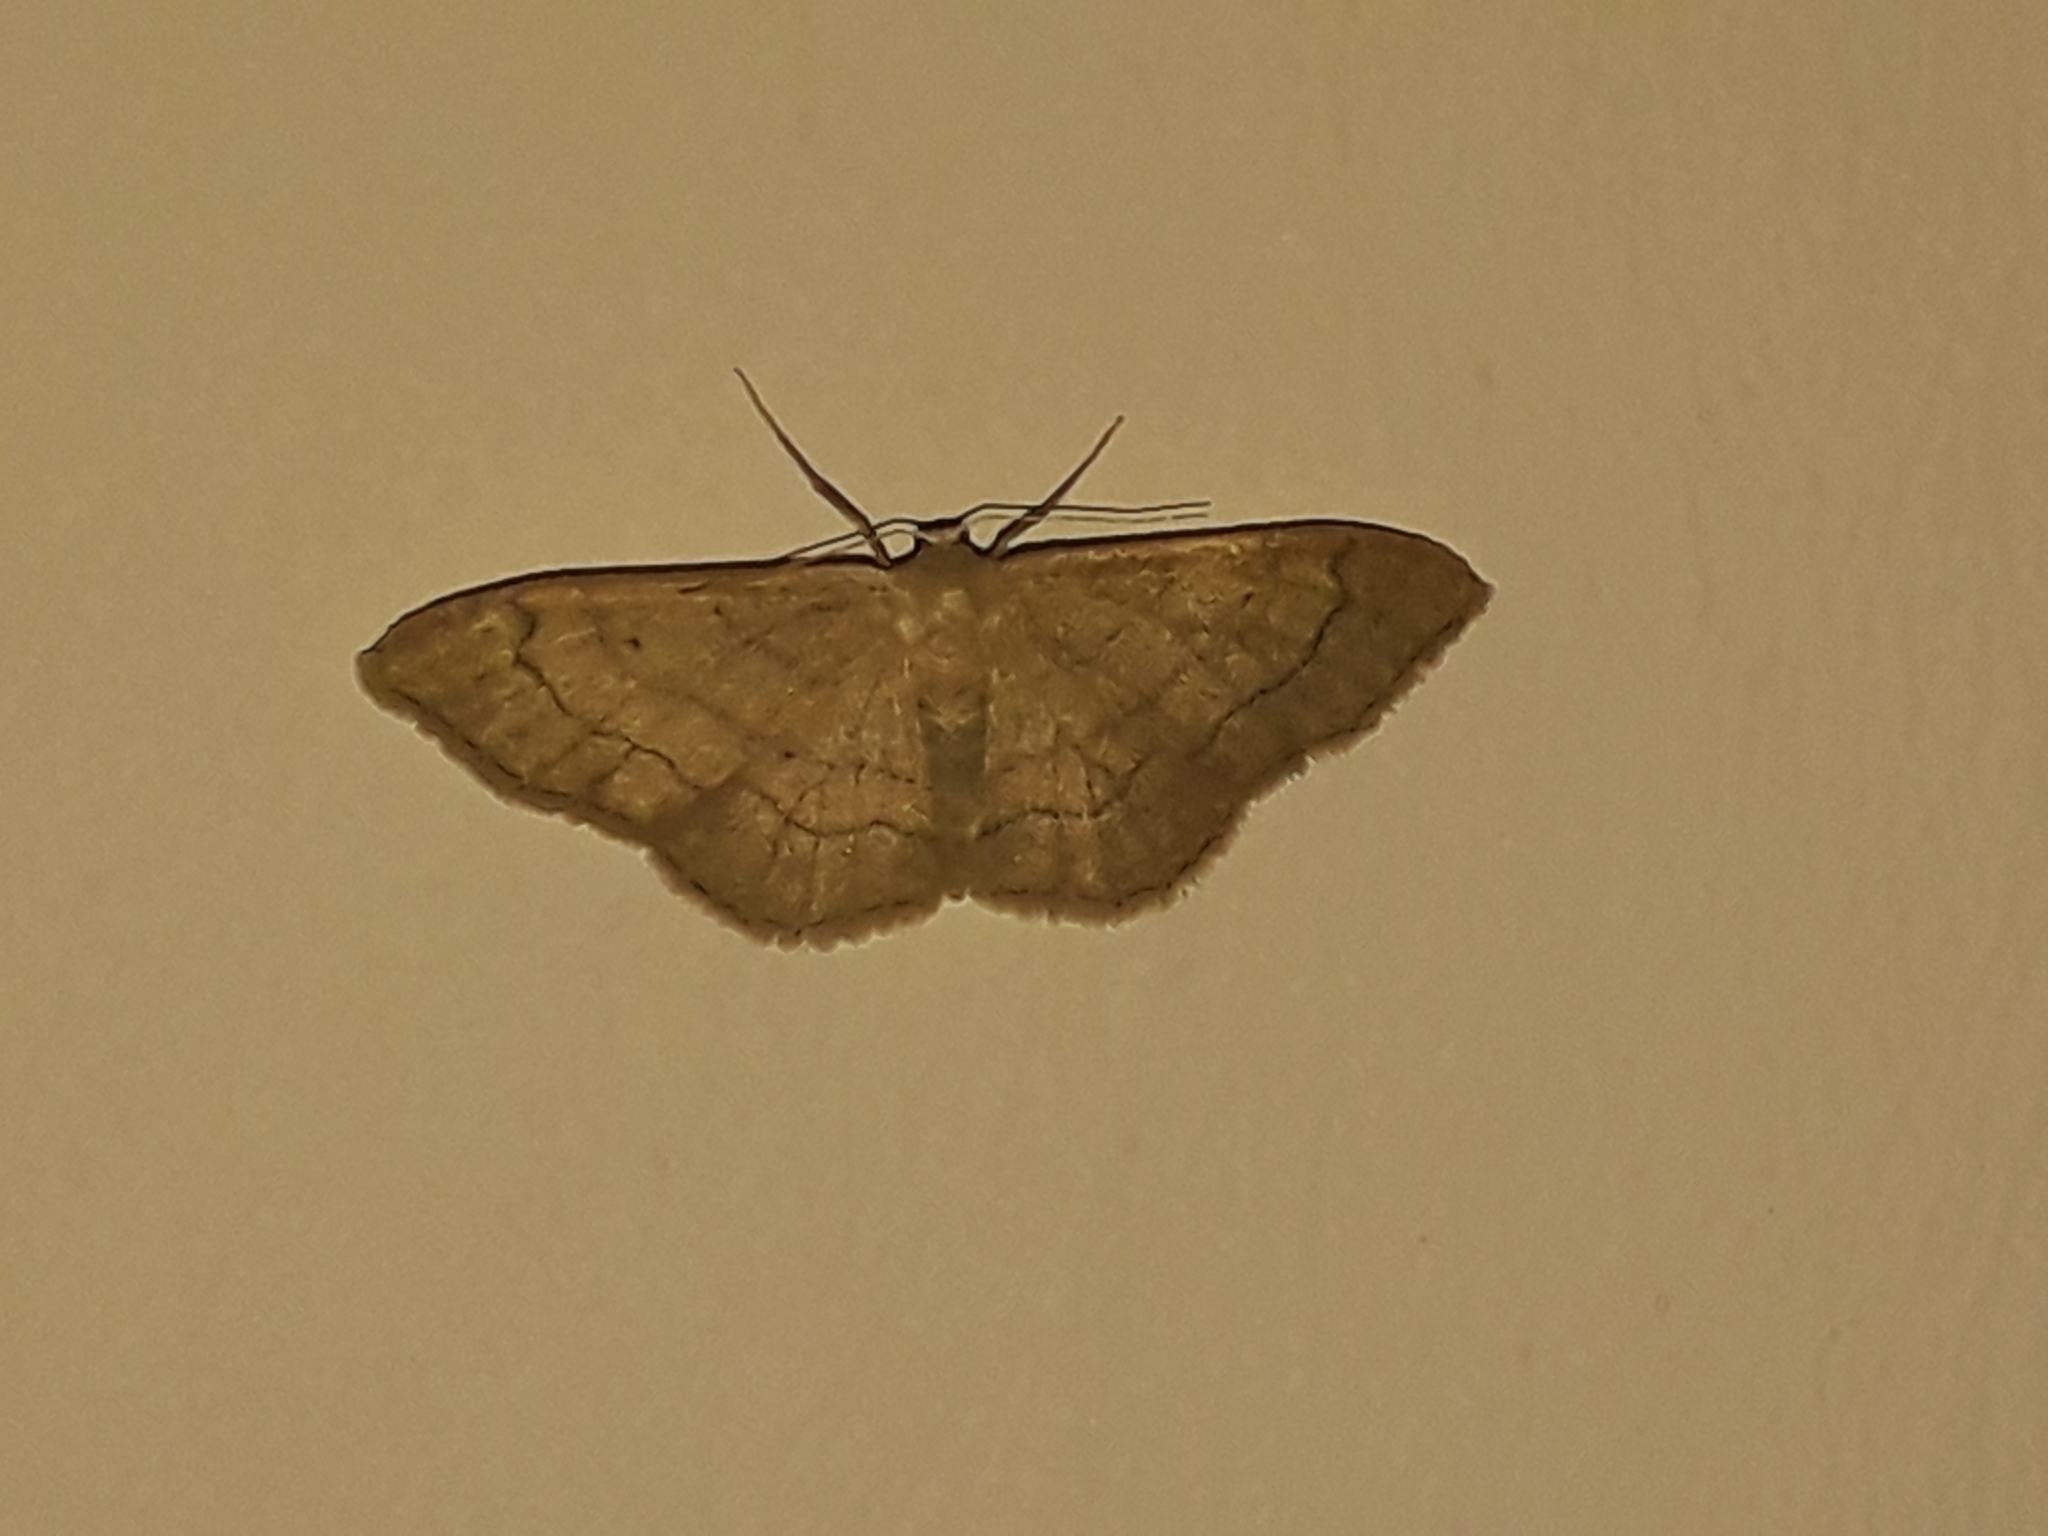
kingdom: Animalia
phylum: Arthropoda
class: Insecta
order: Lepidoptera
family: Geometridae
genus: Idaea
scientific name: Idaea aversata
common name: Riband wave
